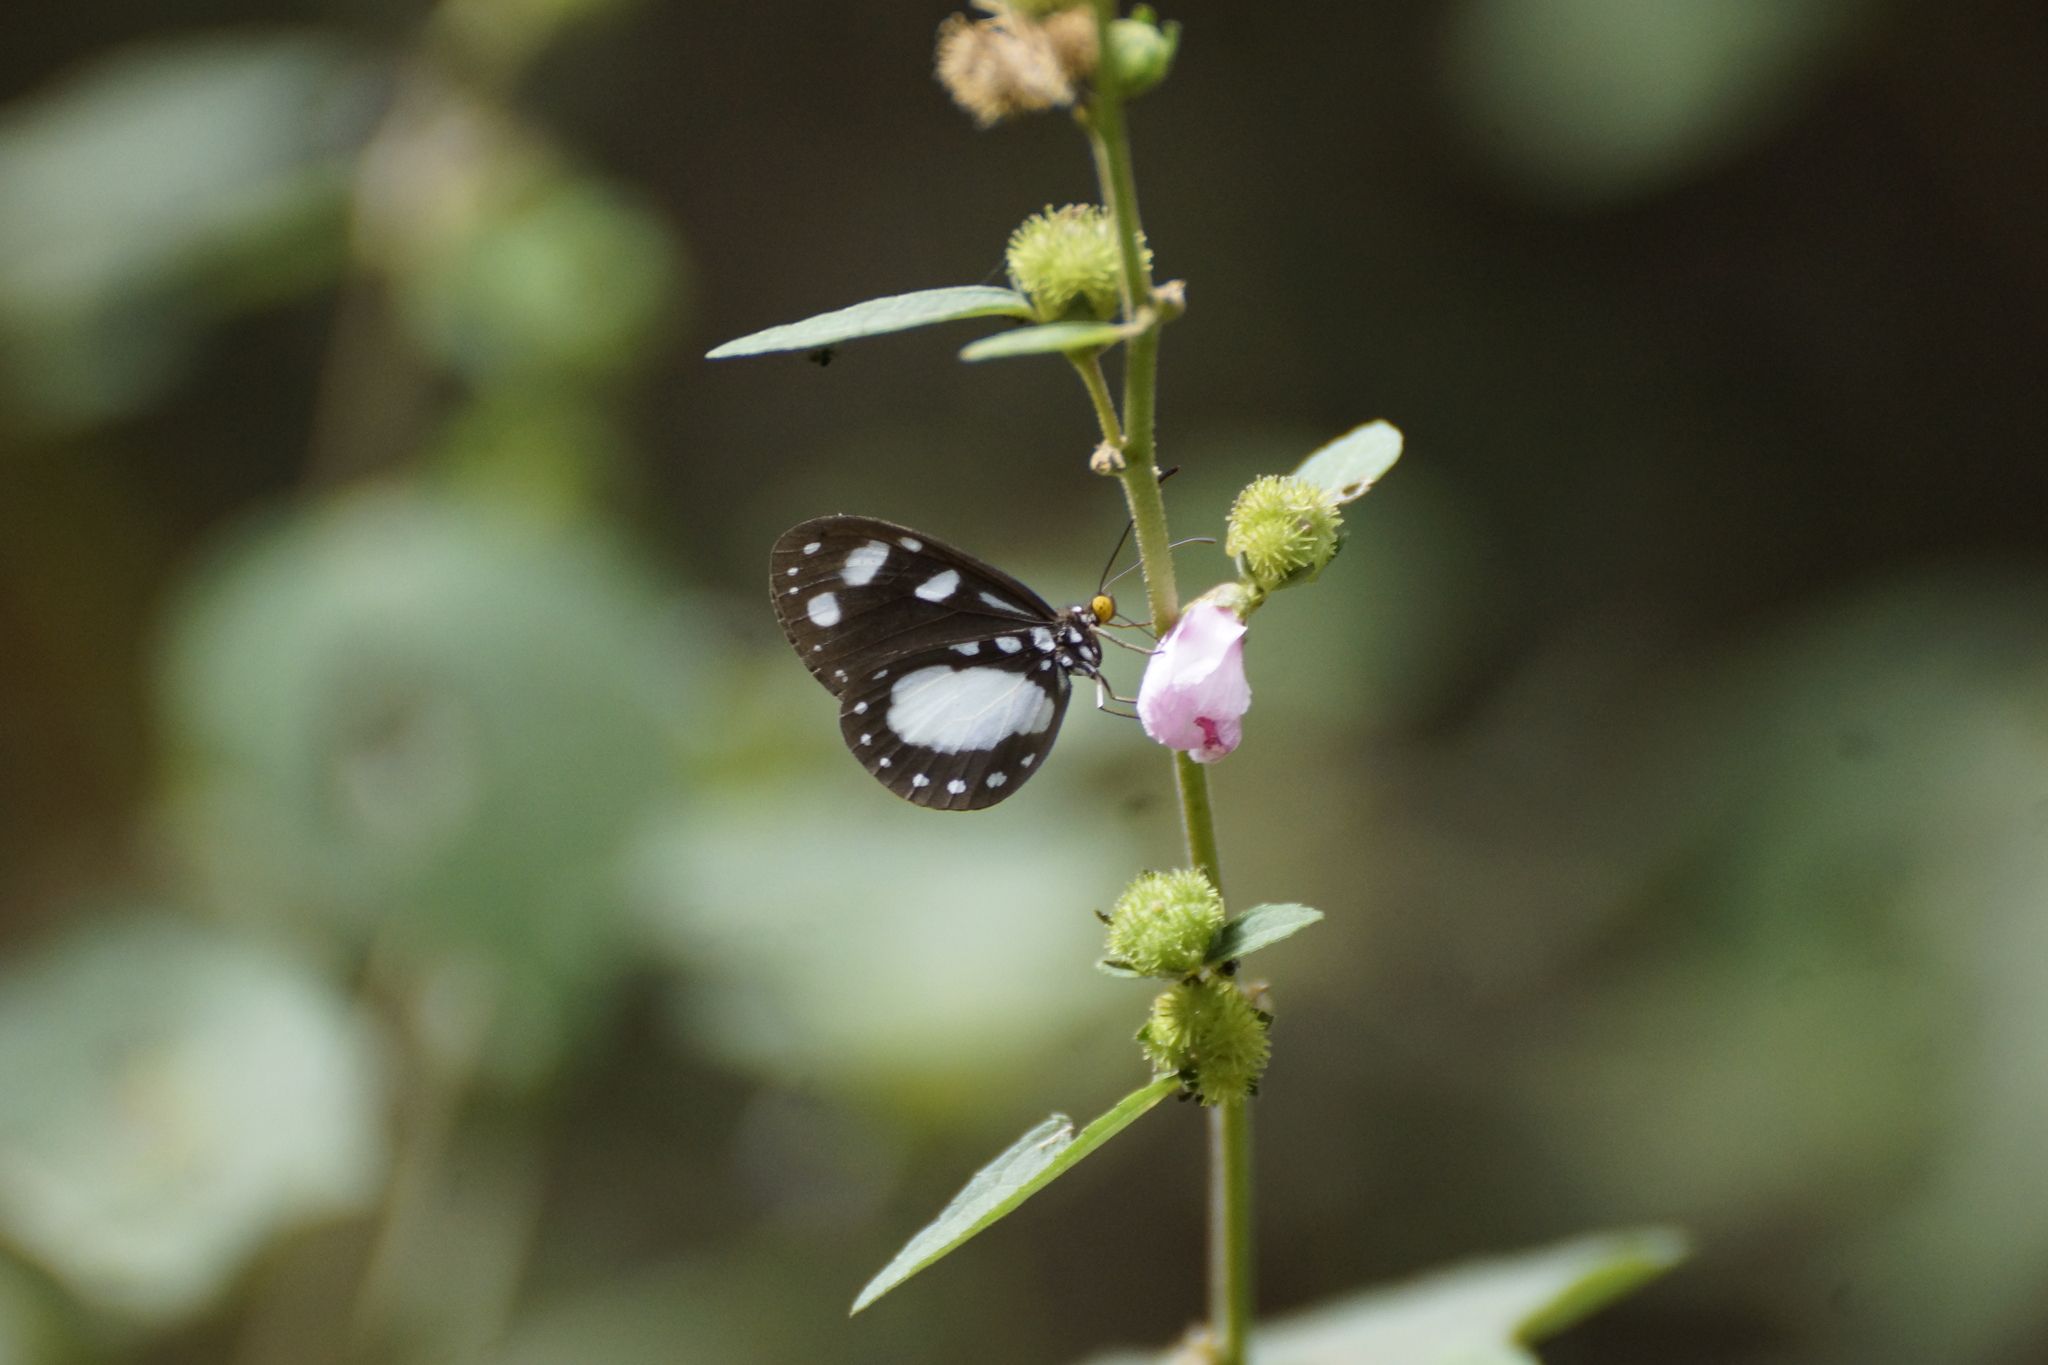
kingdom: Animalia
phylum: Arthropoda
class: Insecta
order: Lepidoptera
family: Nymphalidae
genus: Tellervo
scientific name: Tellervo zoilus
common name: Hamadryad
